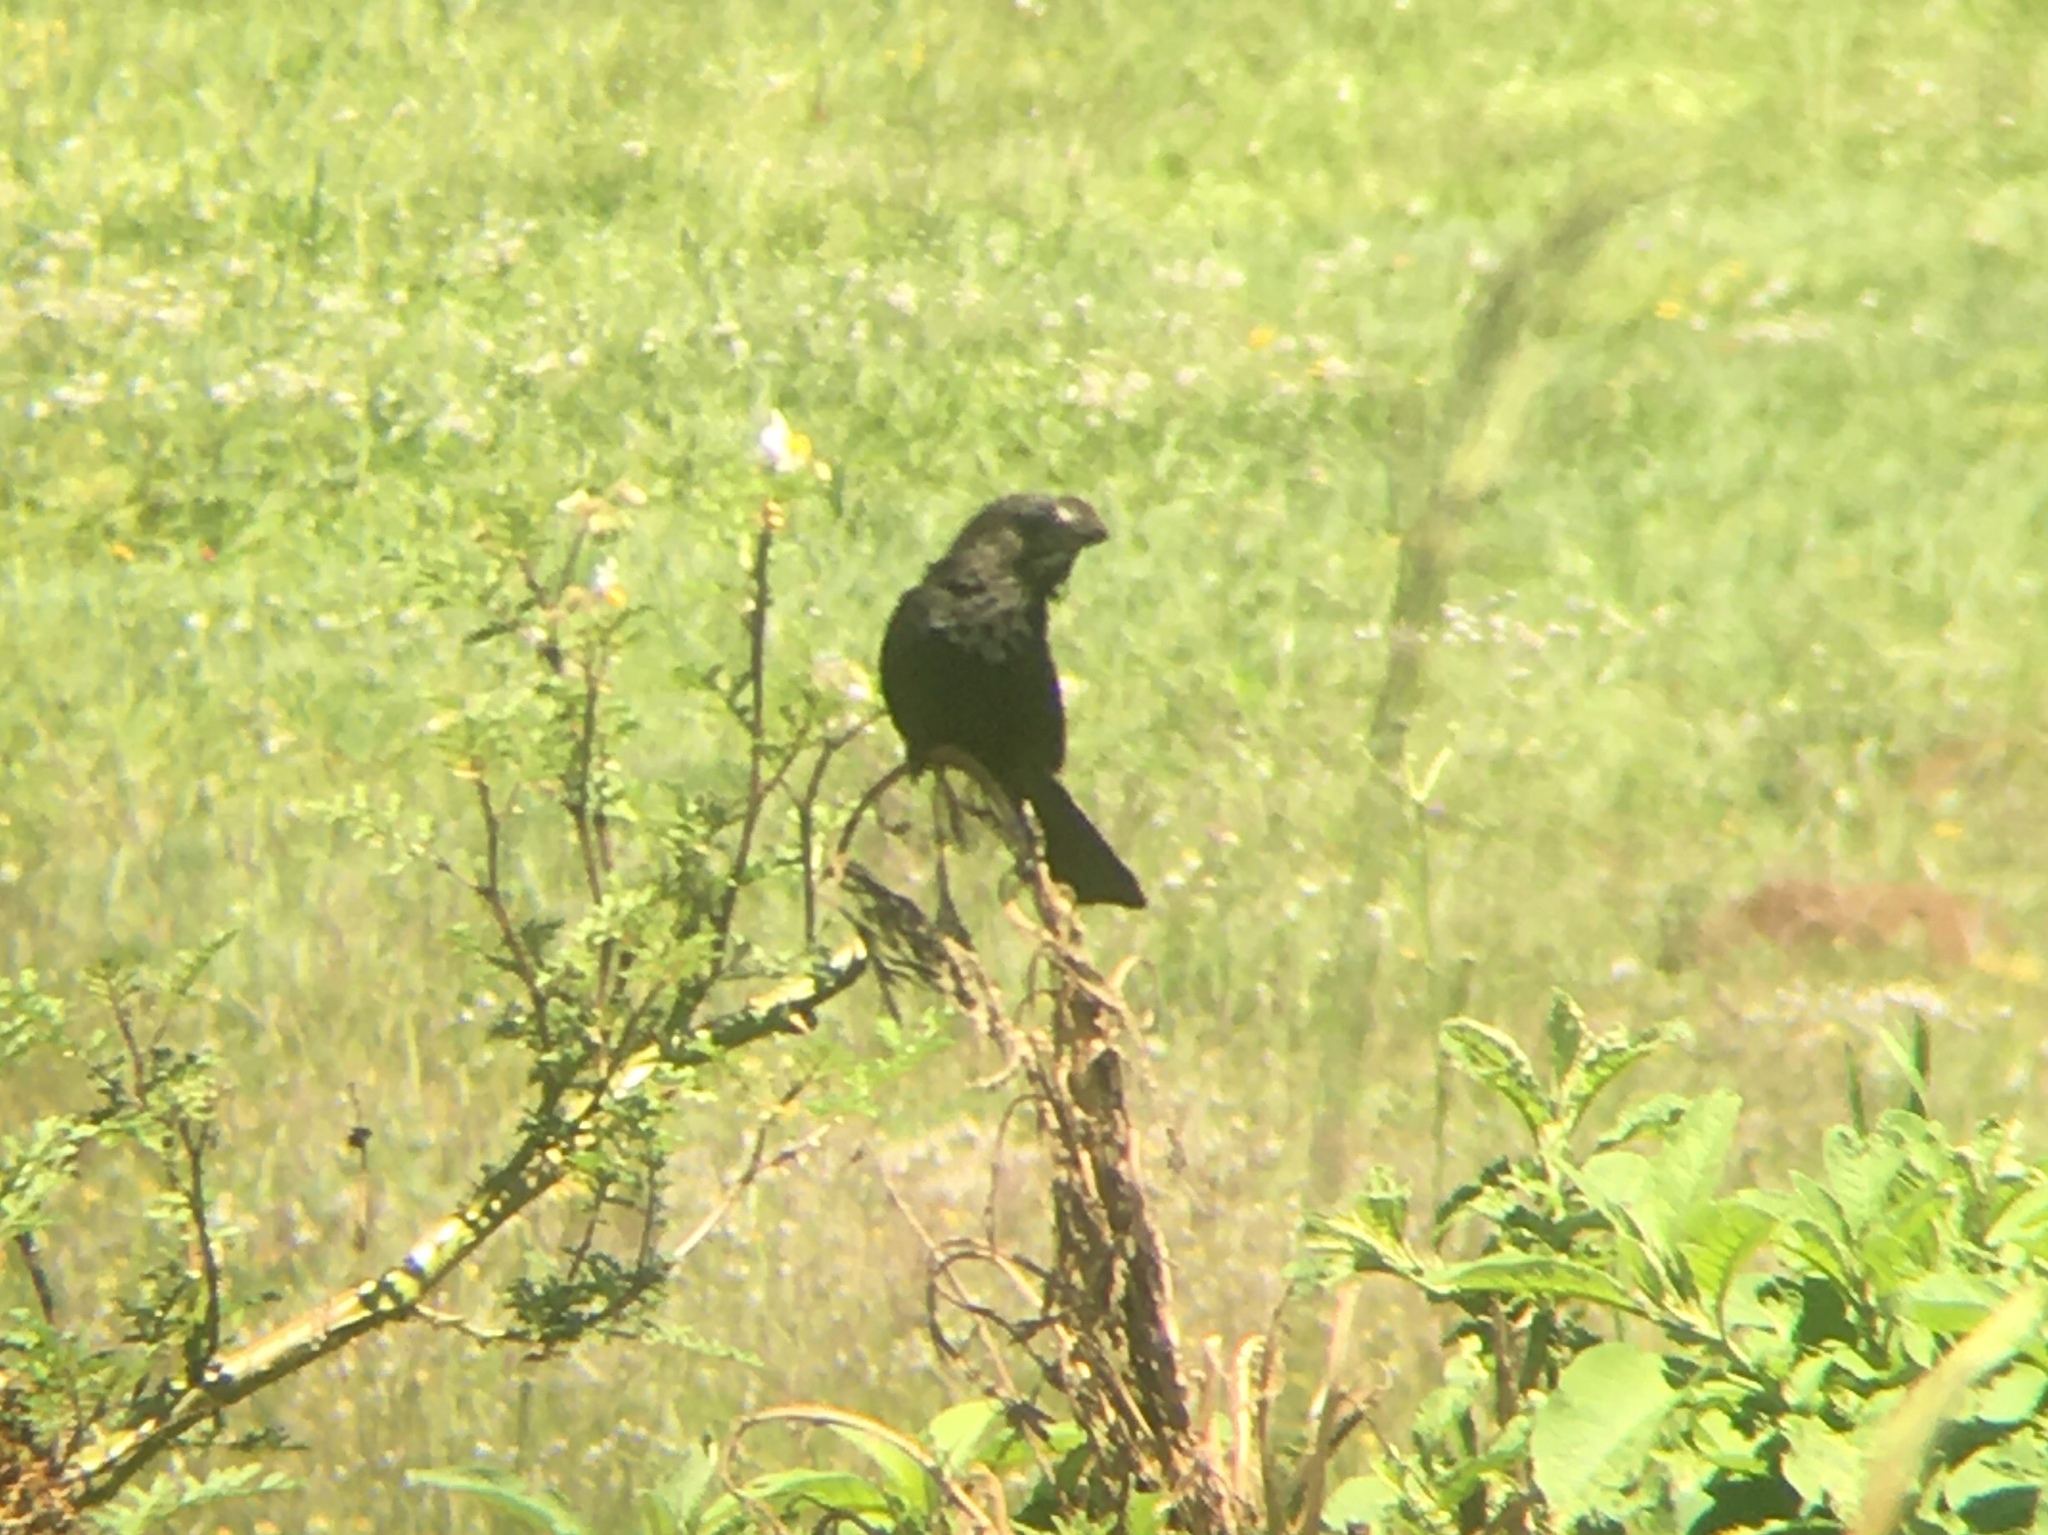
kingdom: Animalia
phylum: Chordata
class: Aves
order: Cuculiformes
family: Cuculidae
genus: Crotophaga
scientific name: Crotophaga ani
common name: Smooth-billed ani
